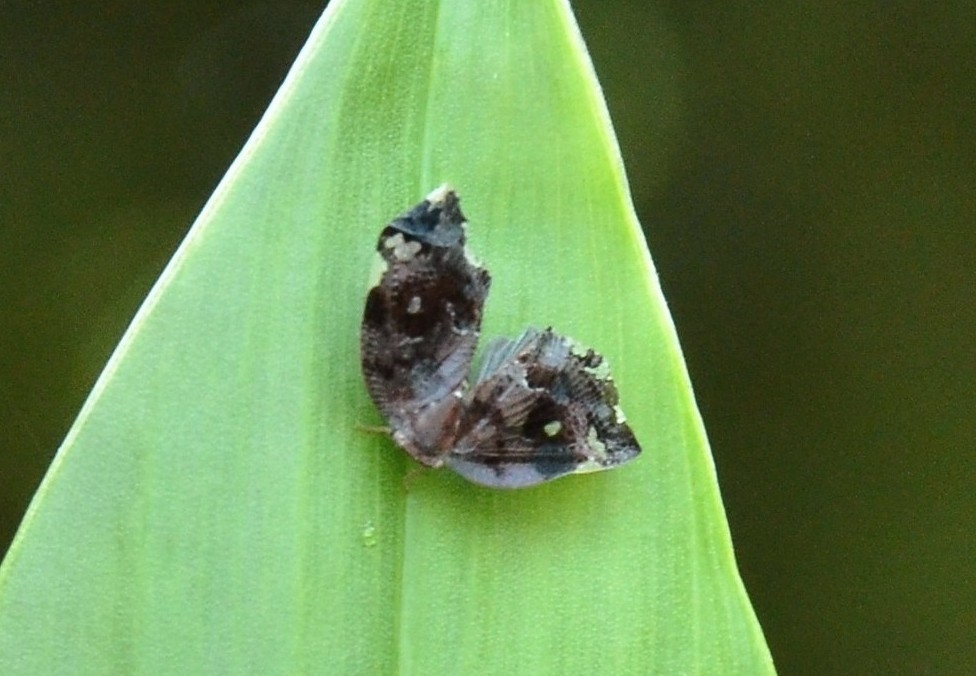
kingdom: Animalia
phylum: Arthropoda
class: Insecta
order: Hemiptera
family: Ricaniidae
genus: Ricania
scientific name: Ricania speculum
